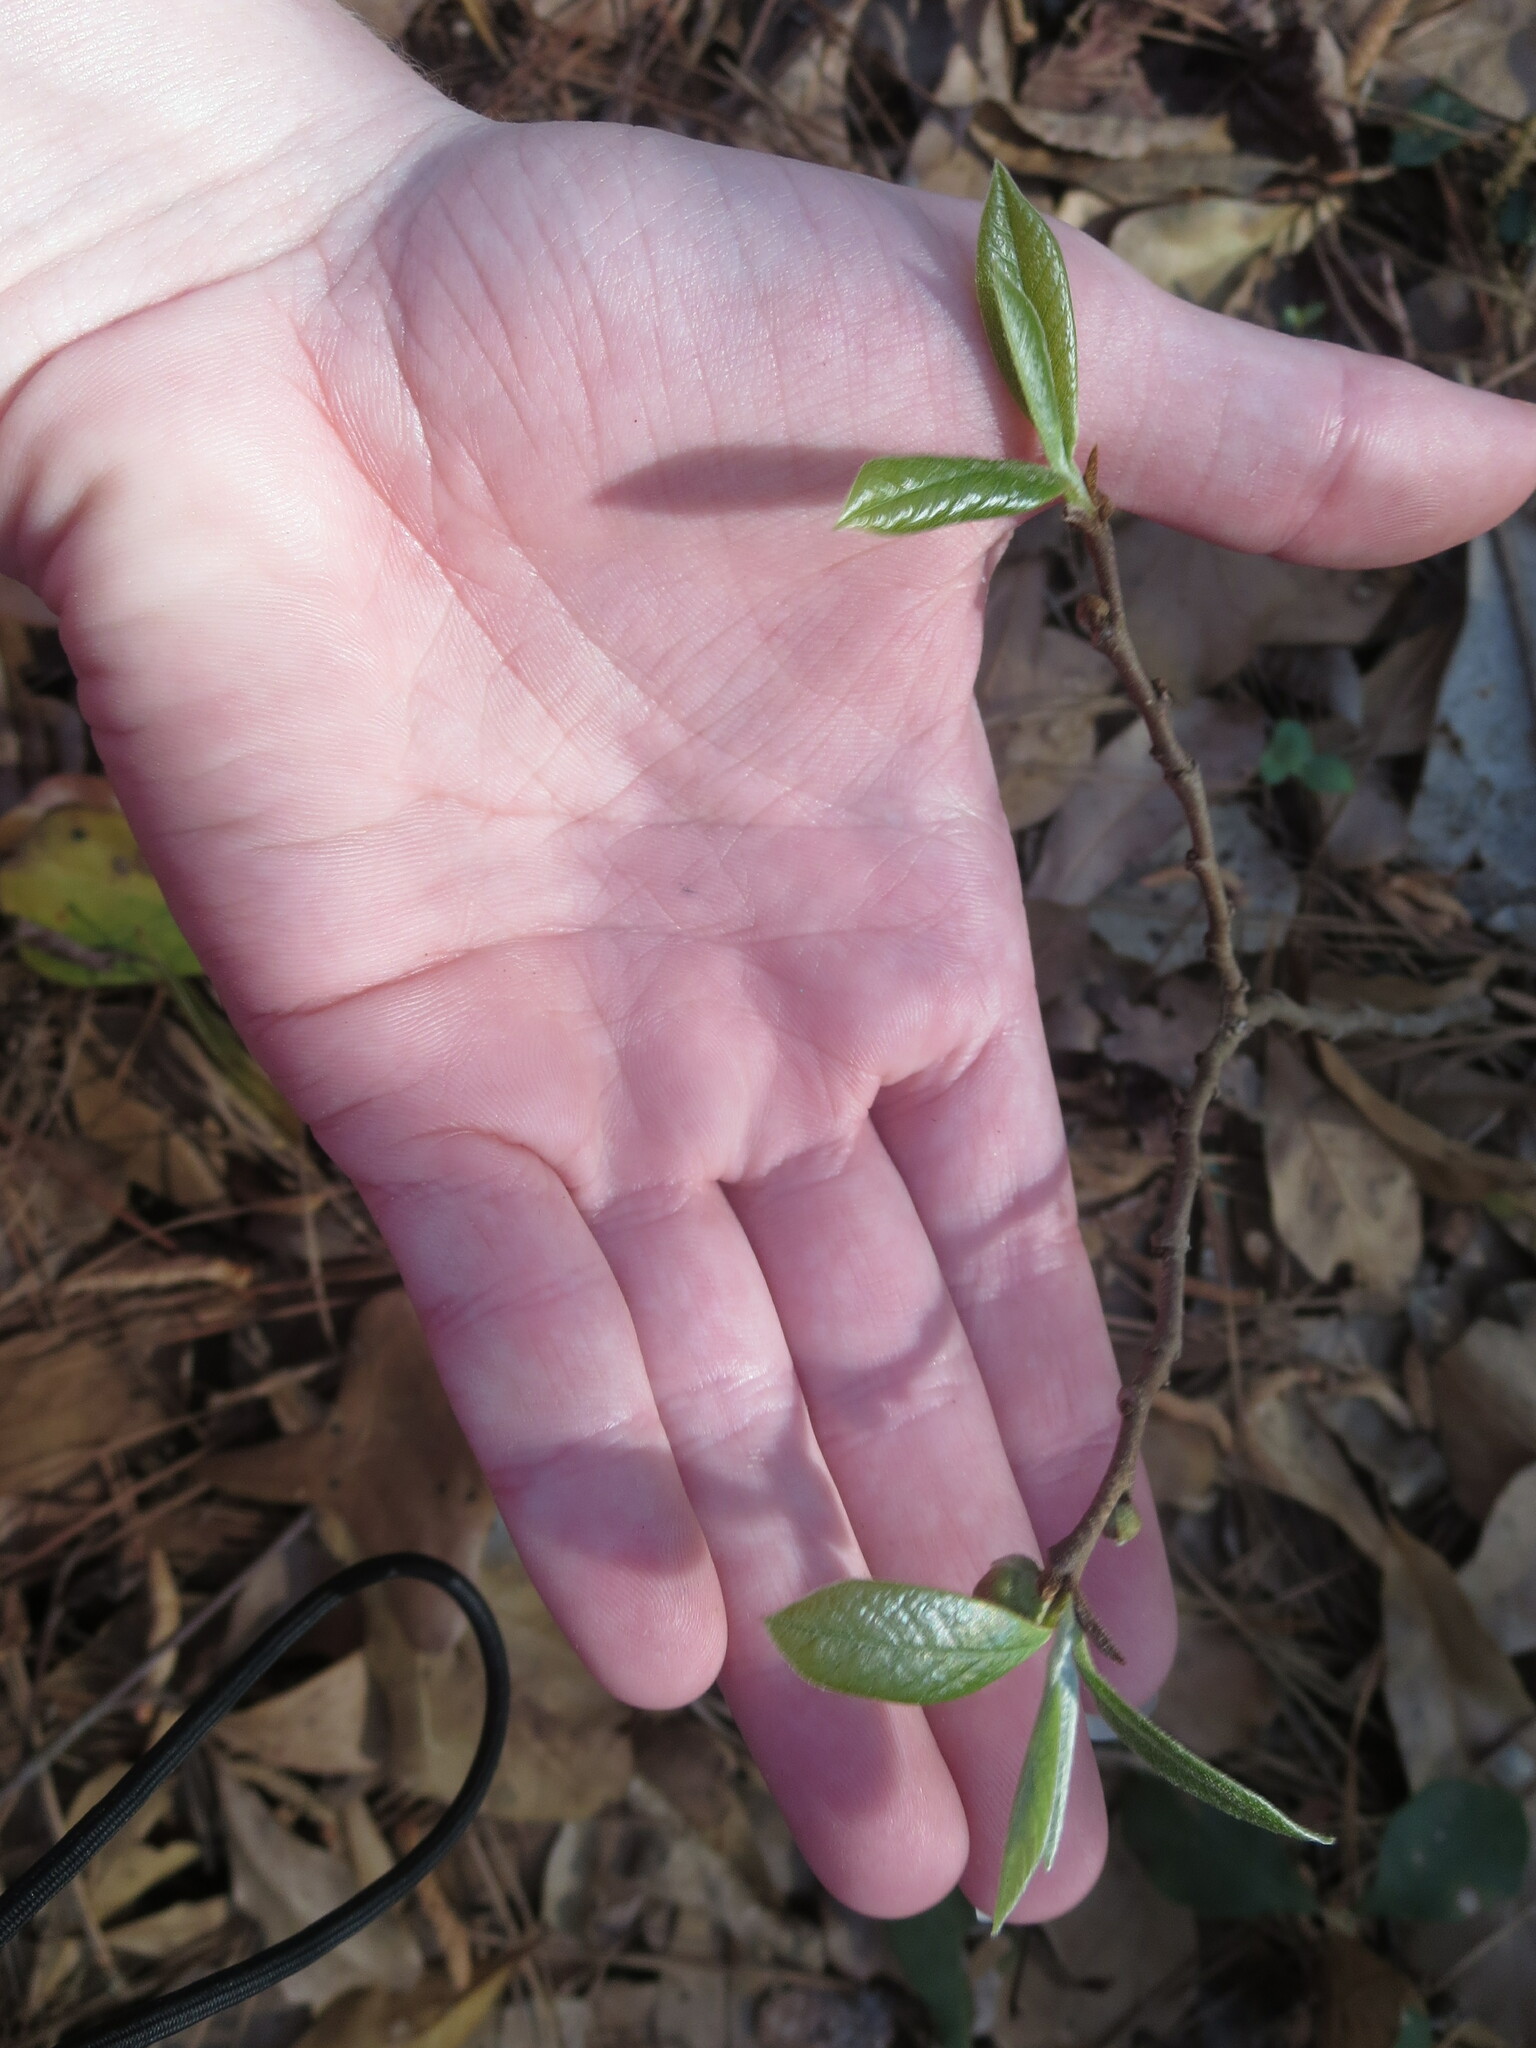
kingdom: Plantae
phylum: Tracheophyta
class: Magnoliopsida
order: Magnoliales
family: Annonaceae
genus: Asimina
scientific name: Asimina parviflora
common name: Dwarf pawpaw
